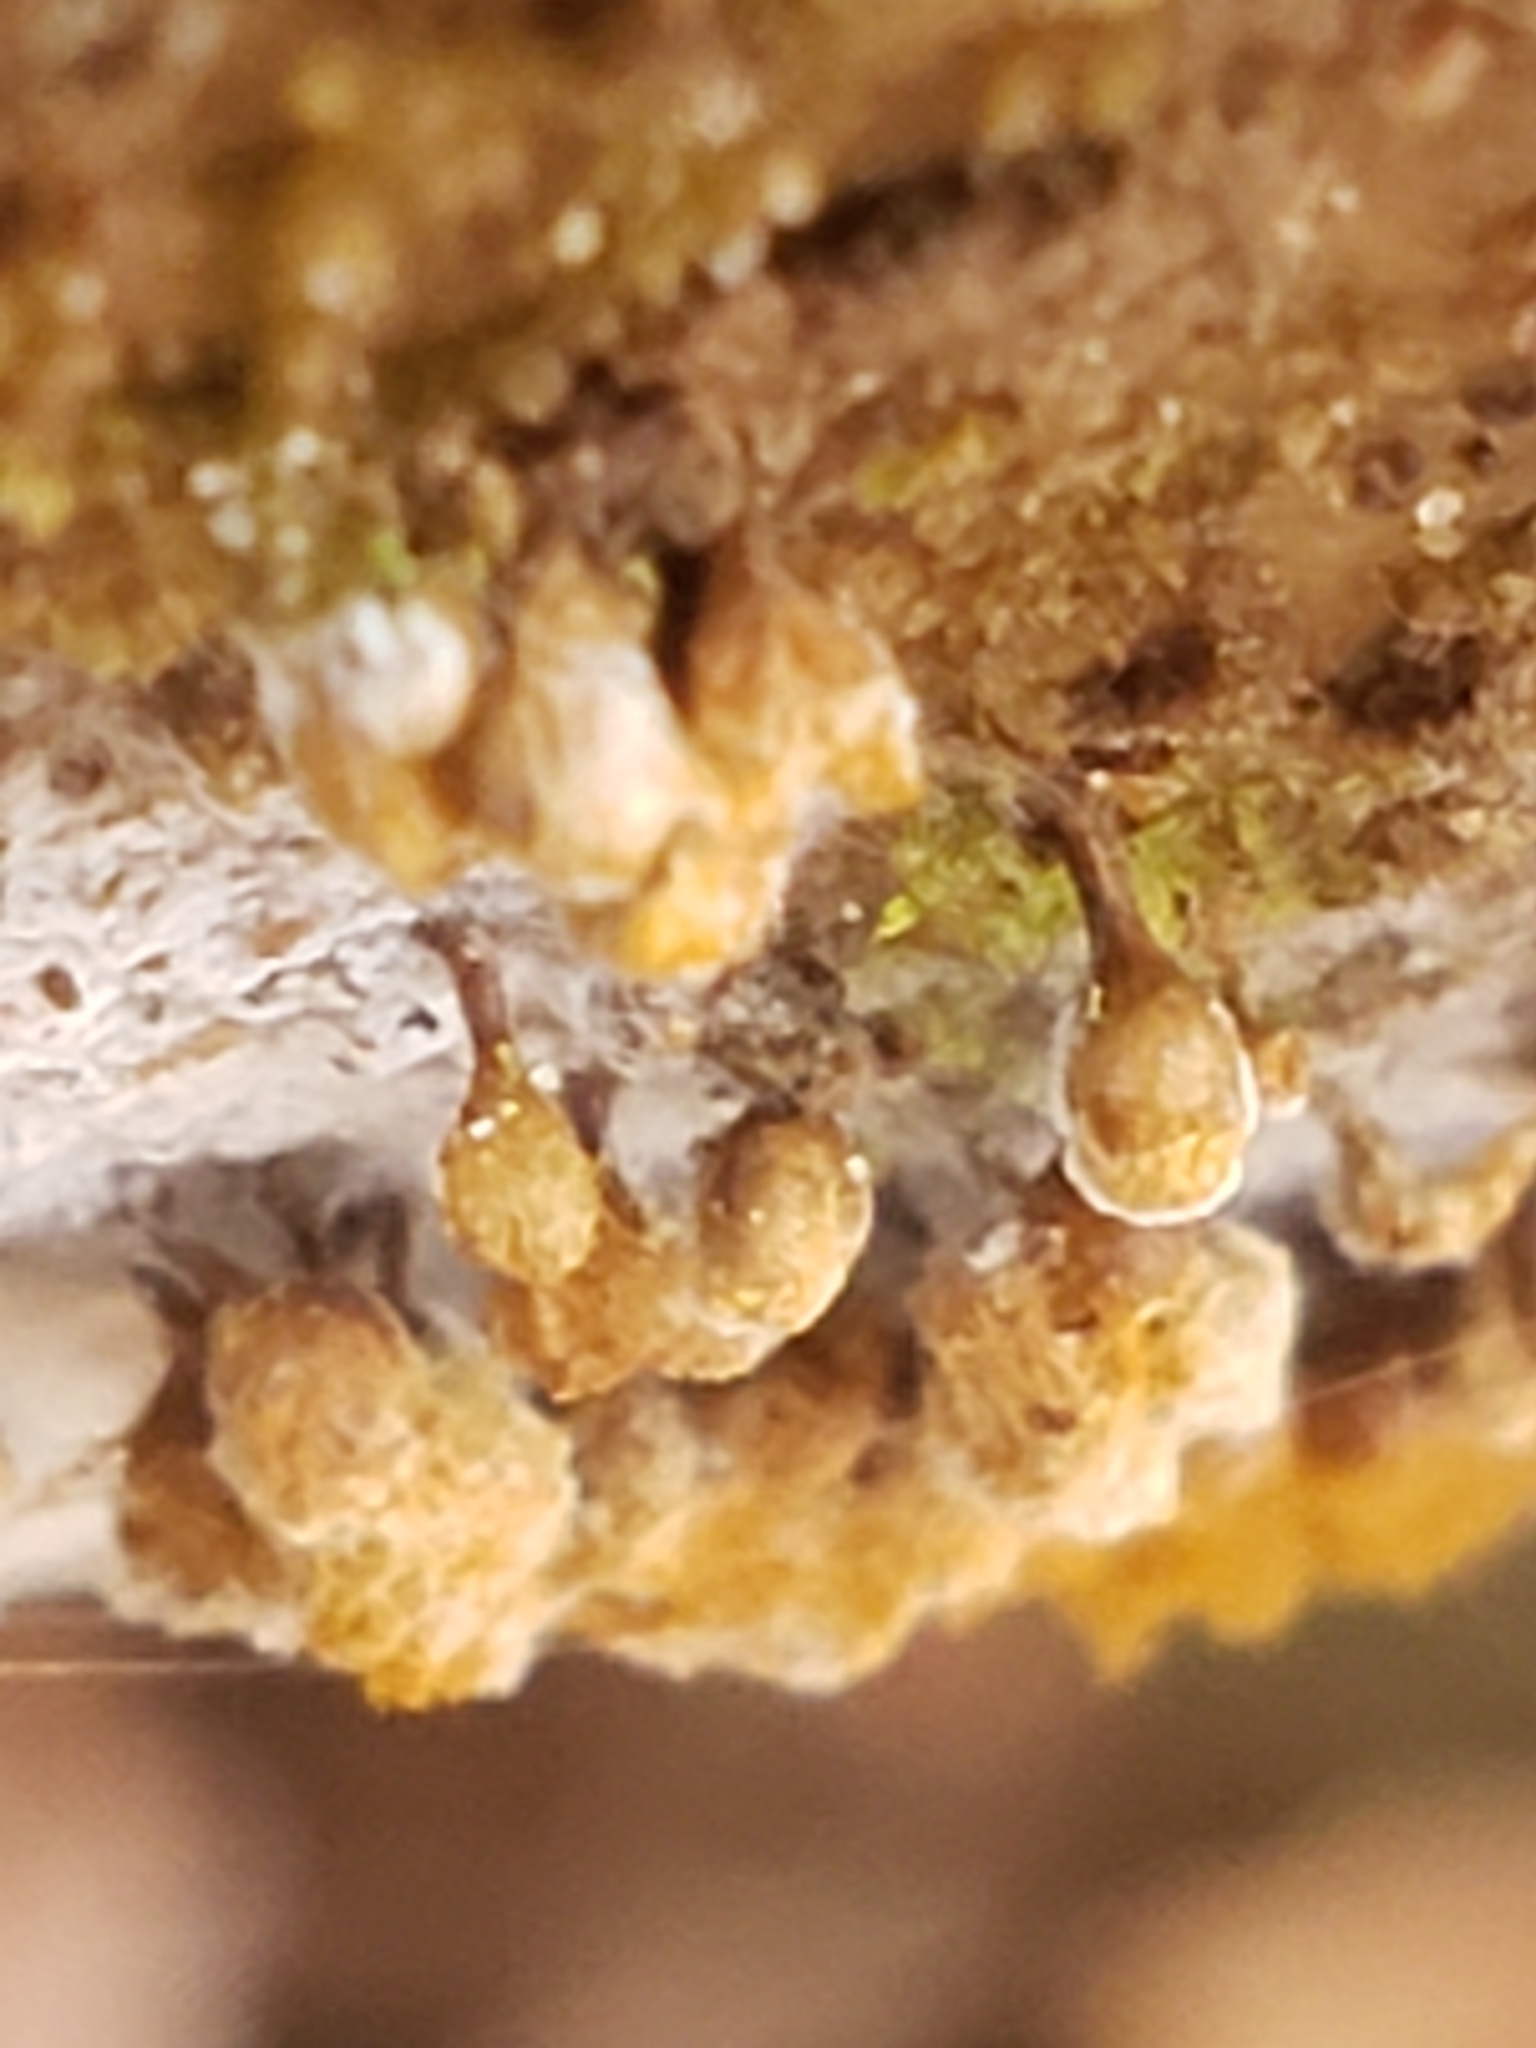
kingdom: Protozoa
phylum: Mycetozoa
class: Myxomycetes
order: Trichiales
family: Arcyriaceae
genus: Hemitrichia
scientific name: Hemitrichia decipiens
